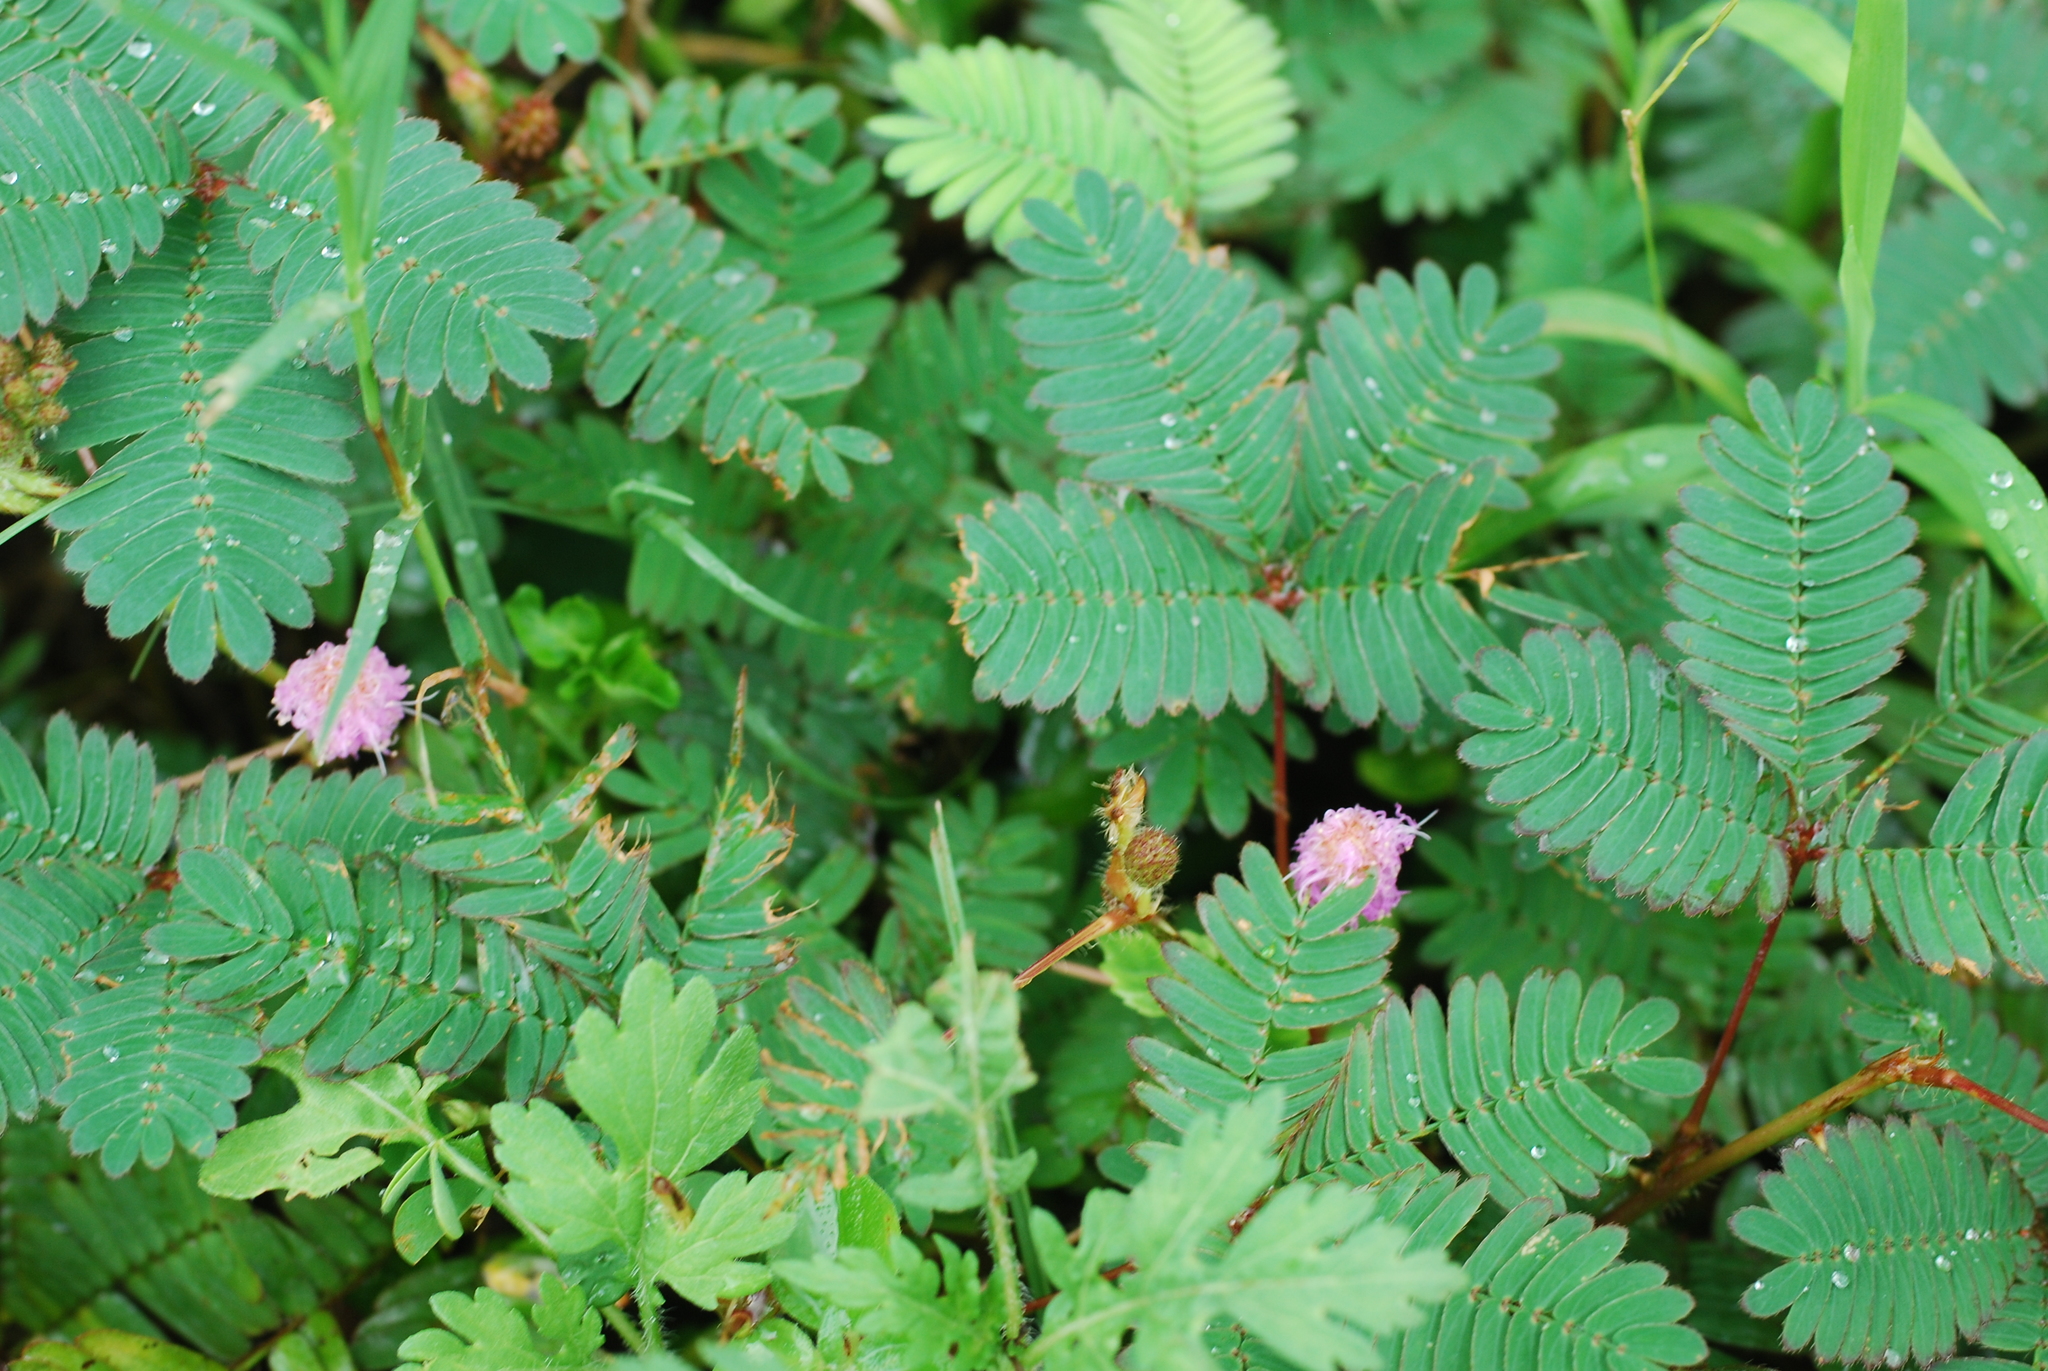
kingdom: Plantae
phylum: Tracheophyta
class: Magnoliopsida
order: Fabales
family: Fabaceae
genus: Mimosa
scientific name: Mimosa pudica
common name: Sensitive plant
